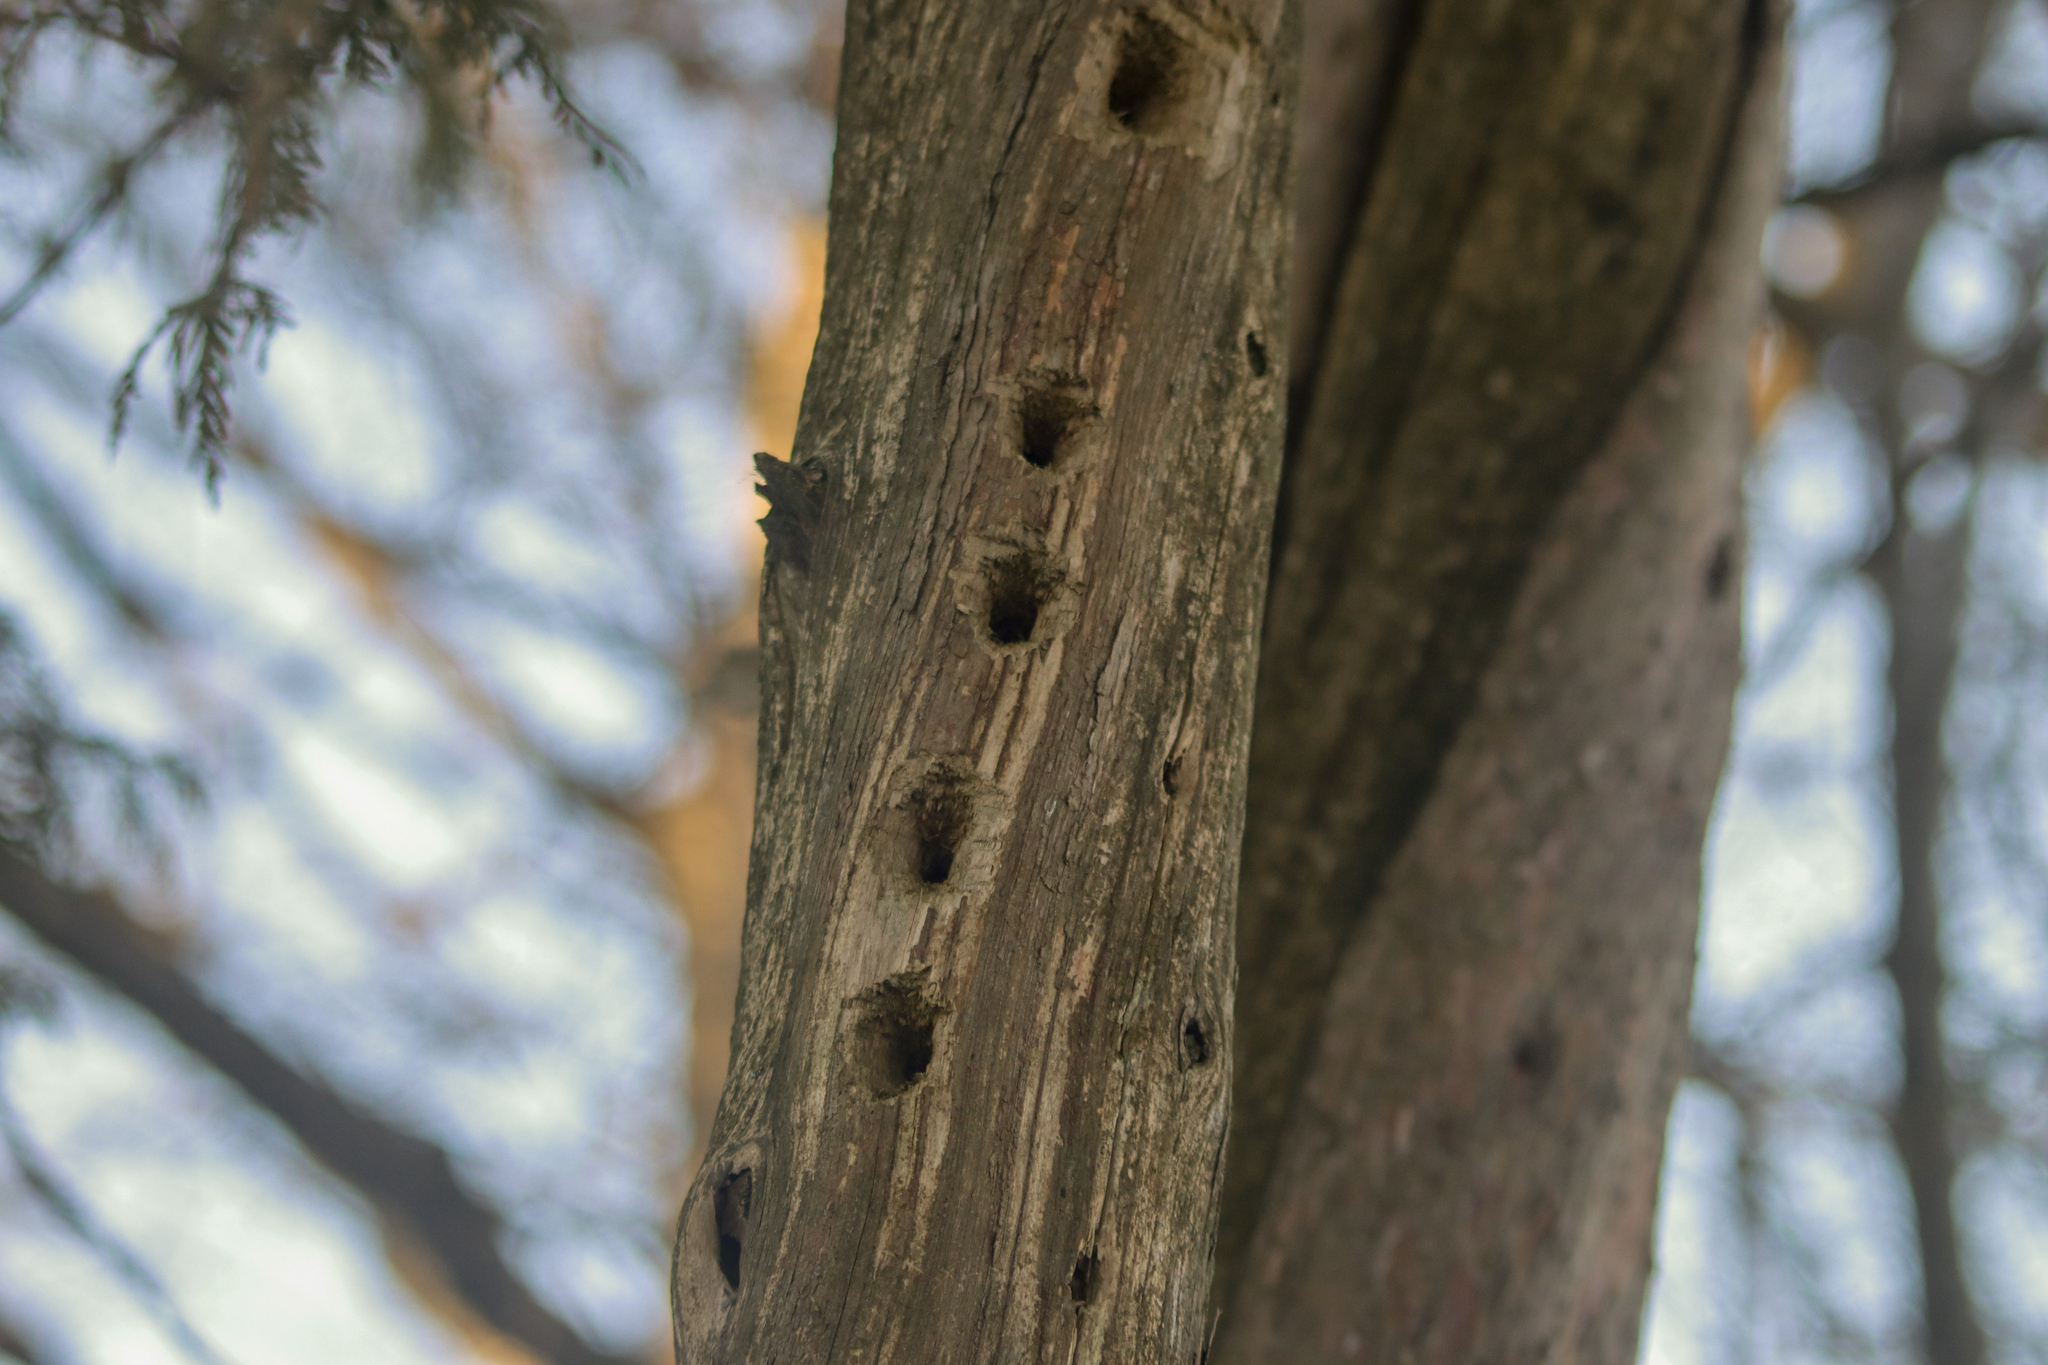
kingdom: Animalia
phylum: Chordata
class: Aves
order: Piciformes
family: Picidae
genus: Dryocopus
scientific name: Dryocopus pileatus
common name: Pileated woodpecker
